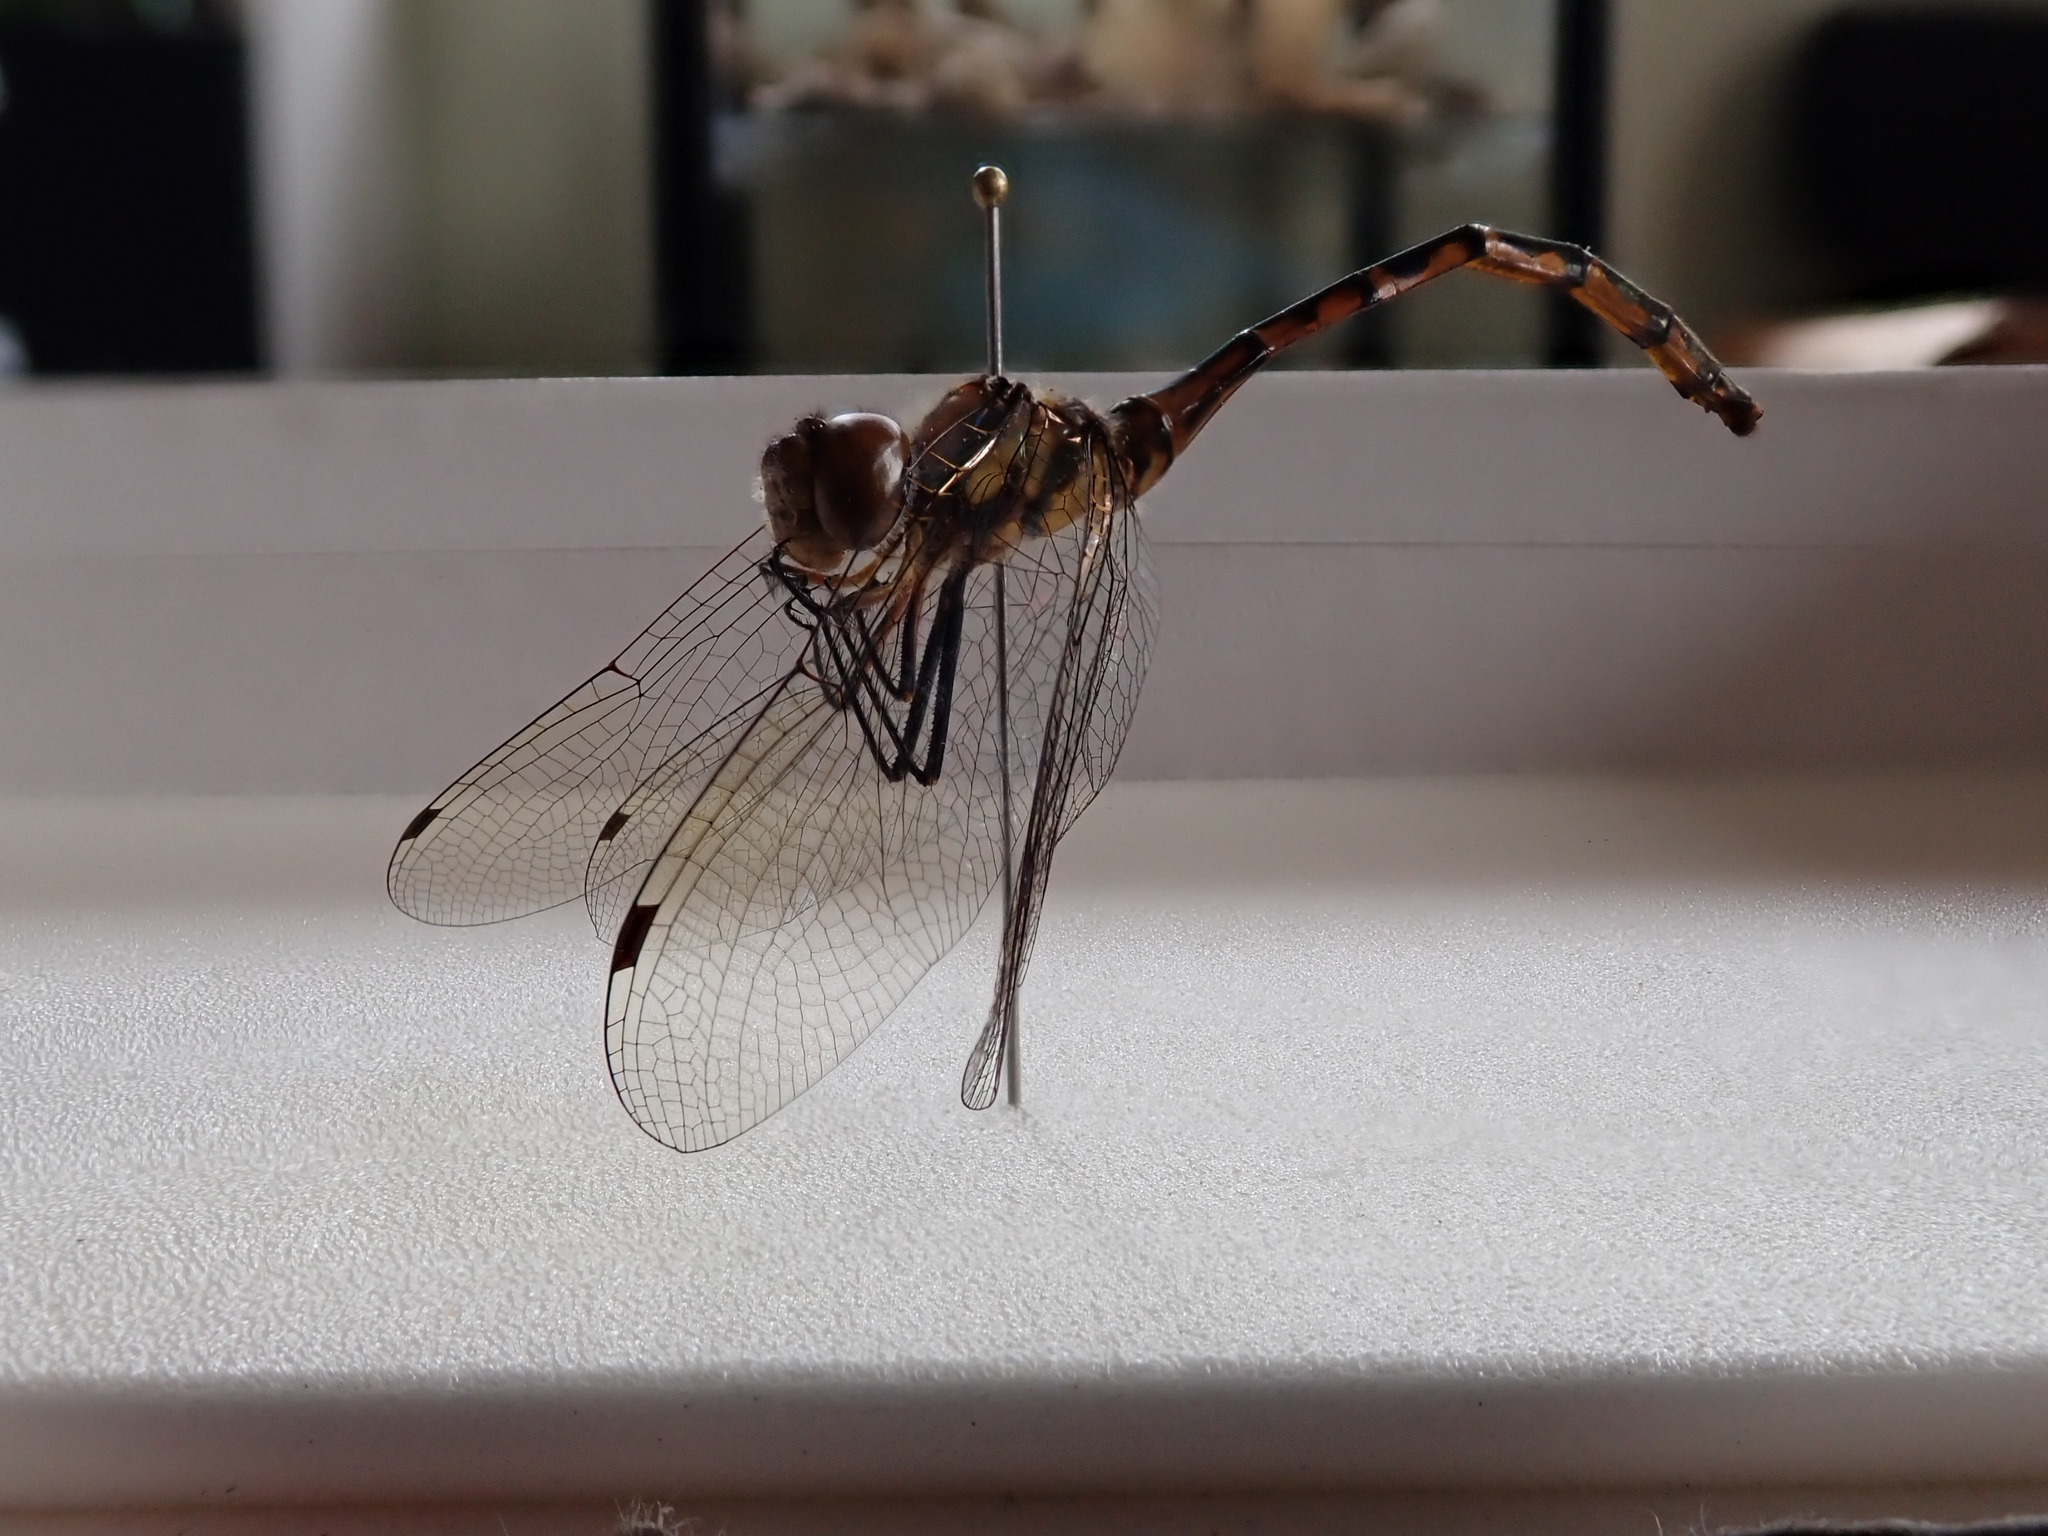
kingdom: Animalia
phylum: Arthropoda
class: Insecta
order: Odonata
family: Corduliidae
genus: Hemicordulia
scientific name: Hemicordulia australiae
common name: Sentry dragonfly
